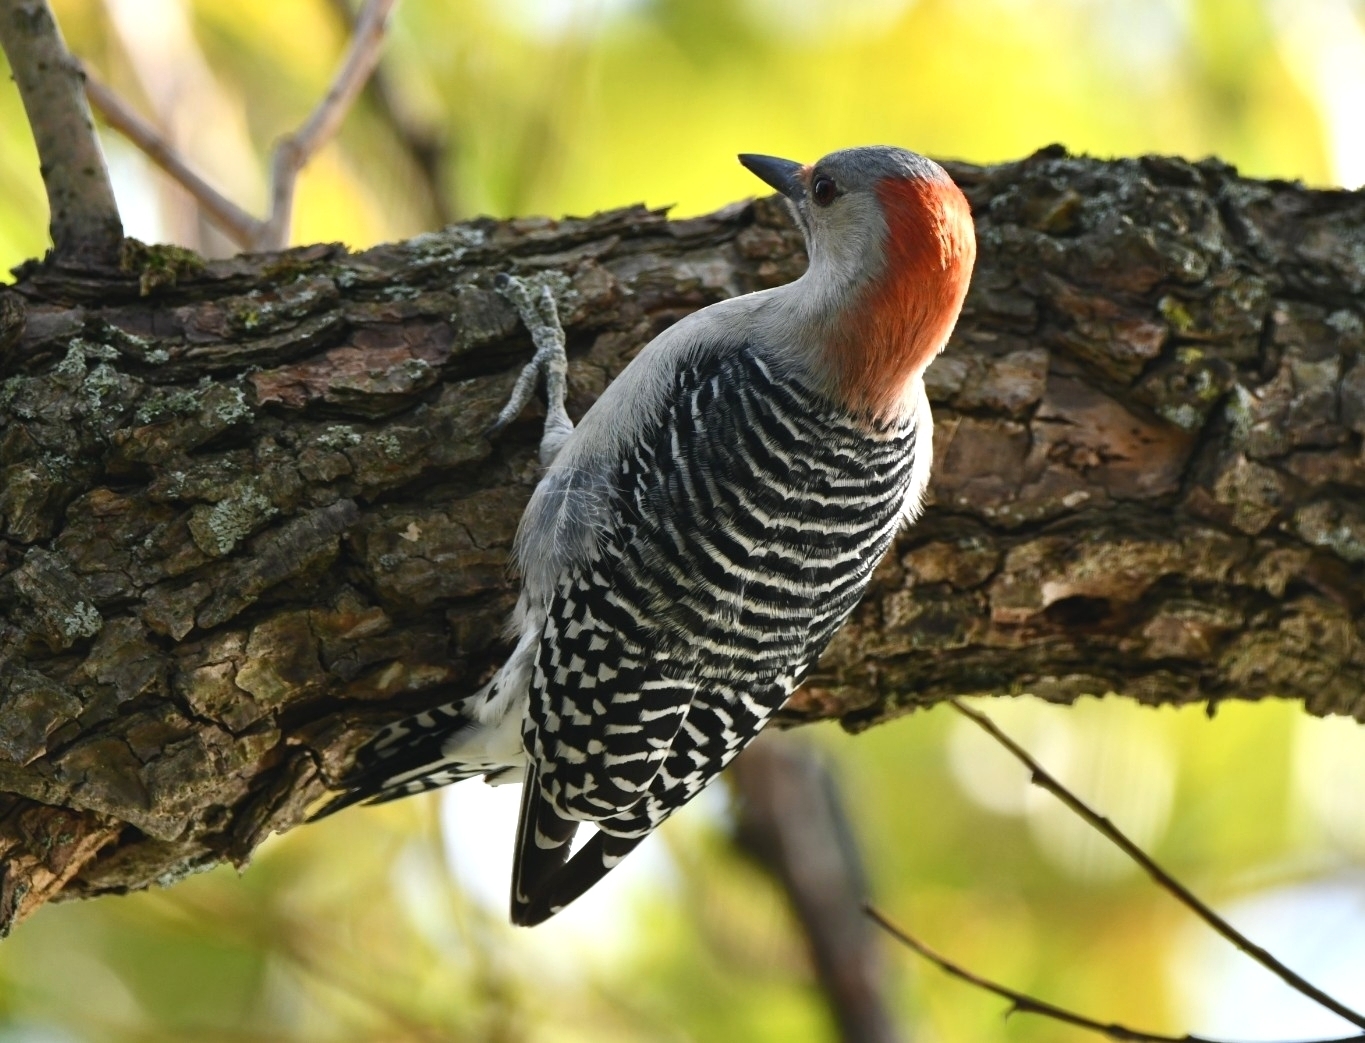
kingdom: Animalia
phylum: Chordata
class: Aves
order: Piciformes
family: Picidae
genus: Melanerpes
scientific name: Melanerpes carolinus
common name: Red-bellied woodpecker
